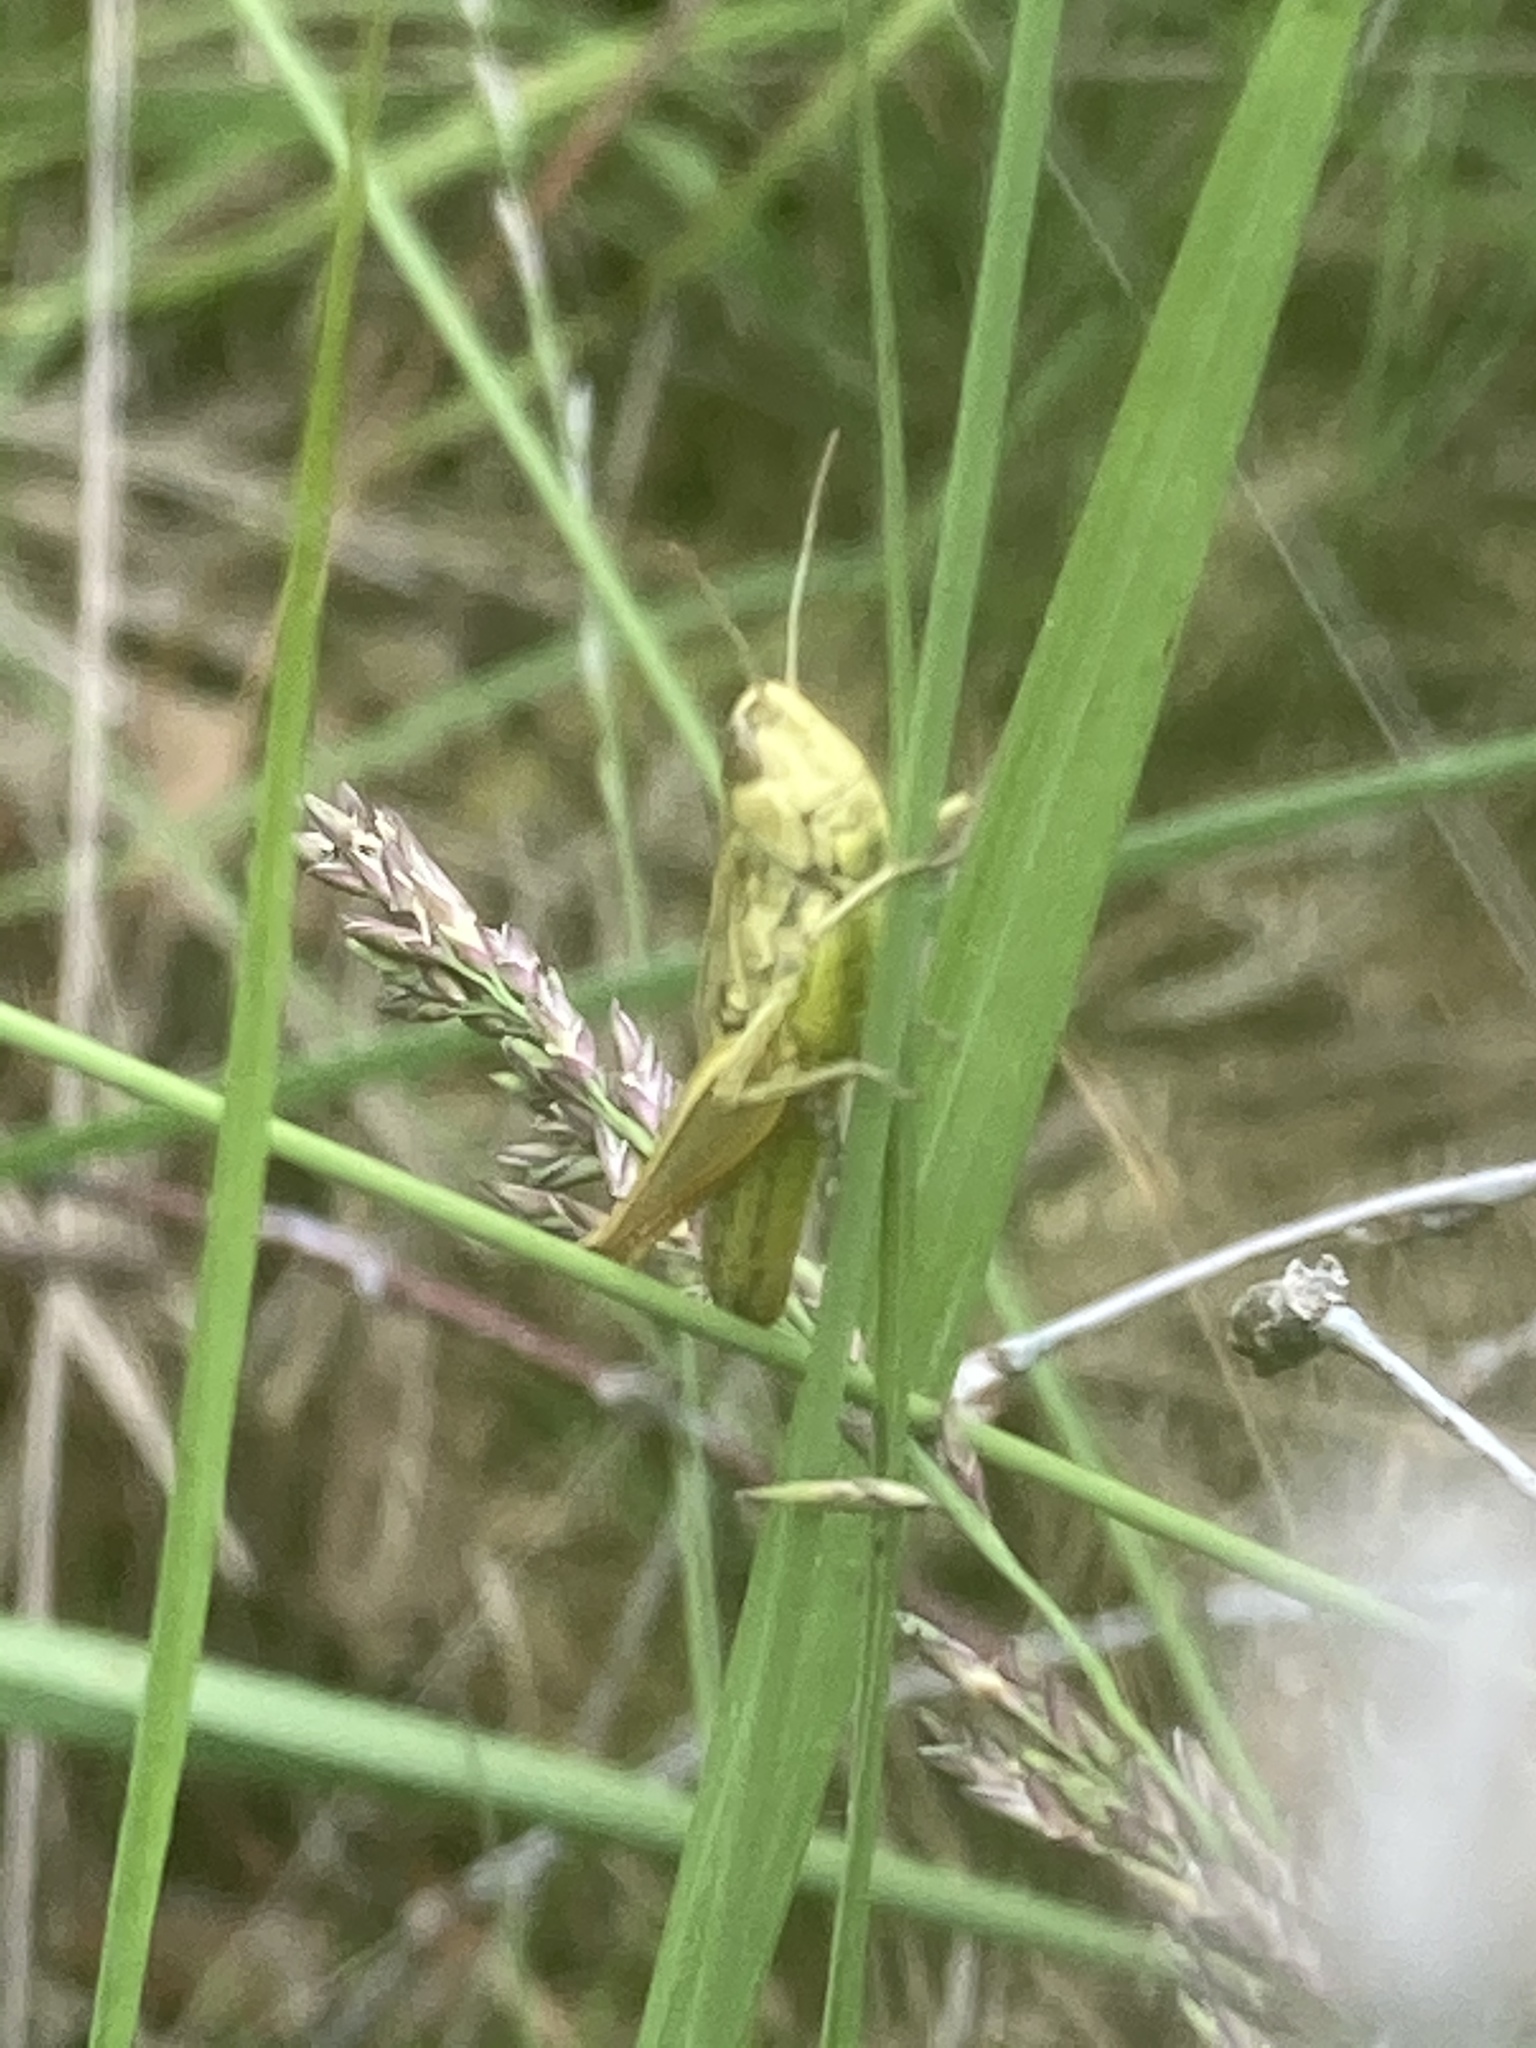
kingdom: Animalia
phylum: Arthropoda
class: Insecta
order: Orthoptera
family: Acrididae
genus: Pseudochorthippus
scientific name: Pseudochorthippus parallelus
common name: Meadow grasshopper
